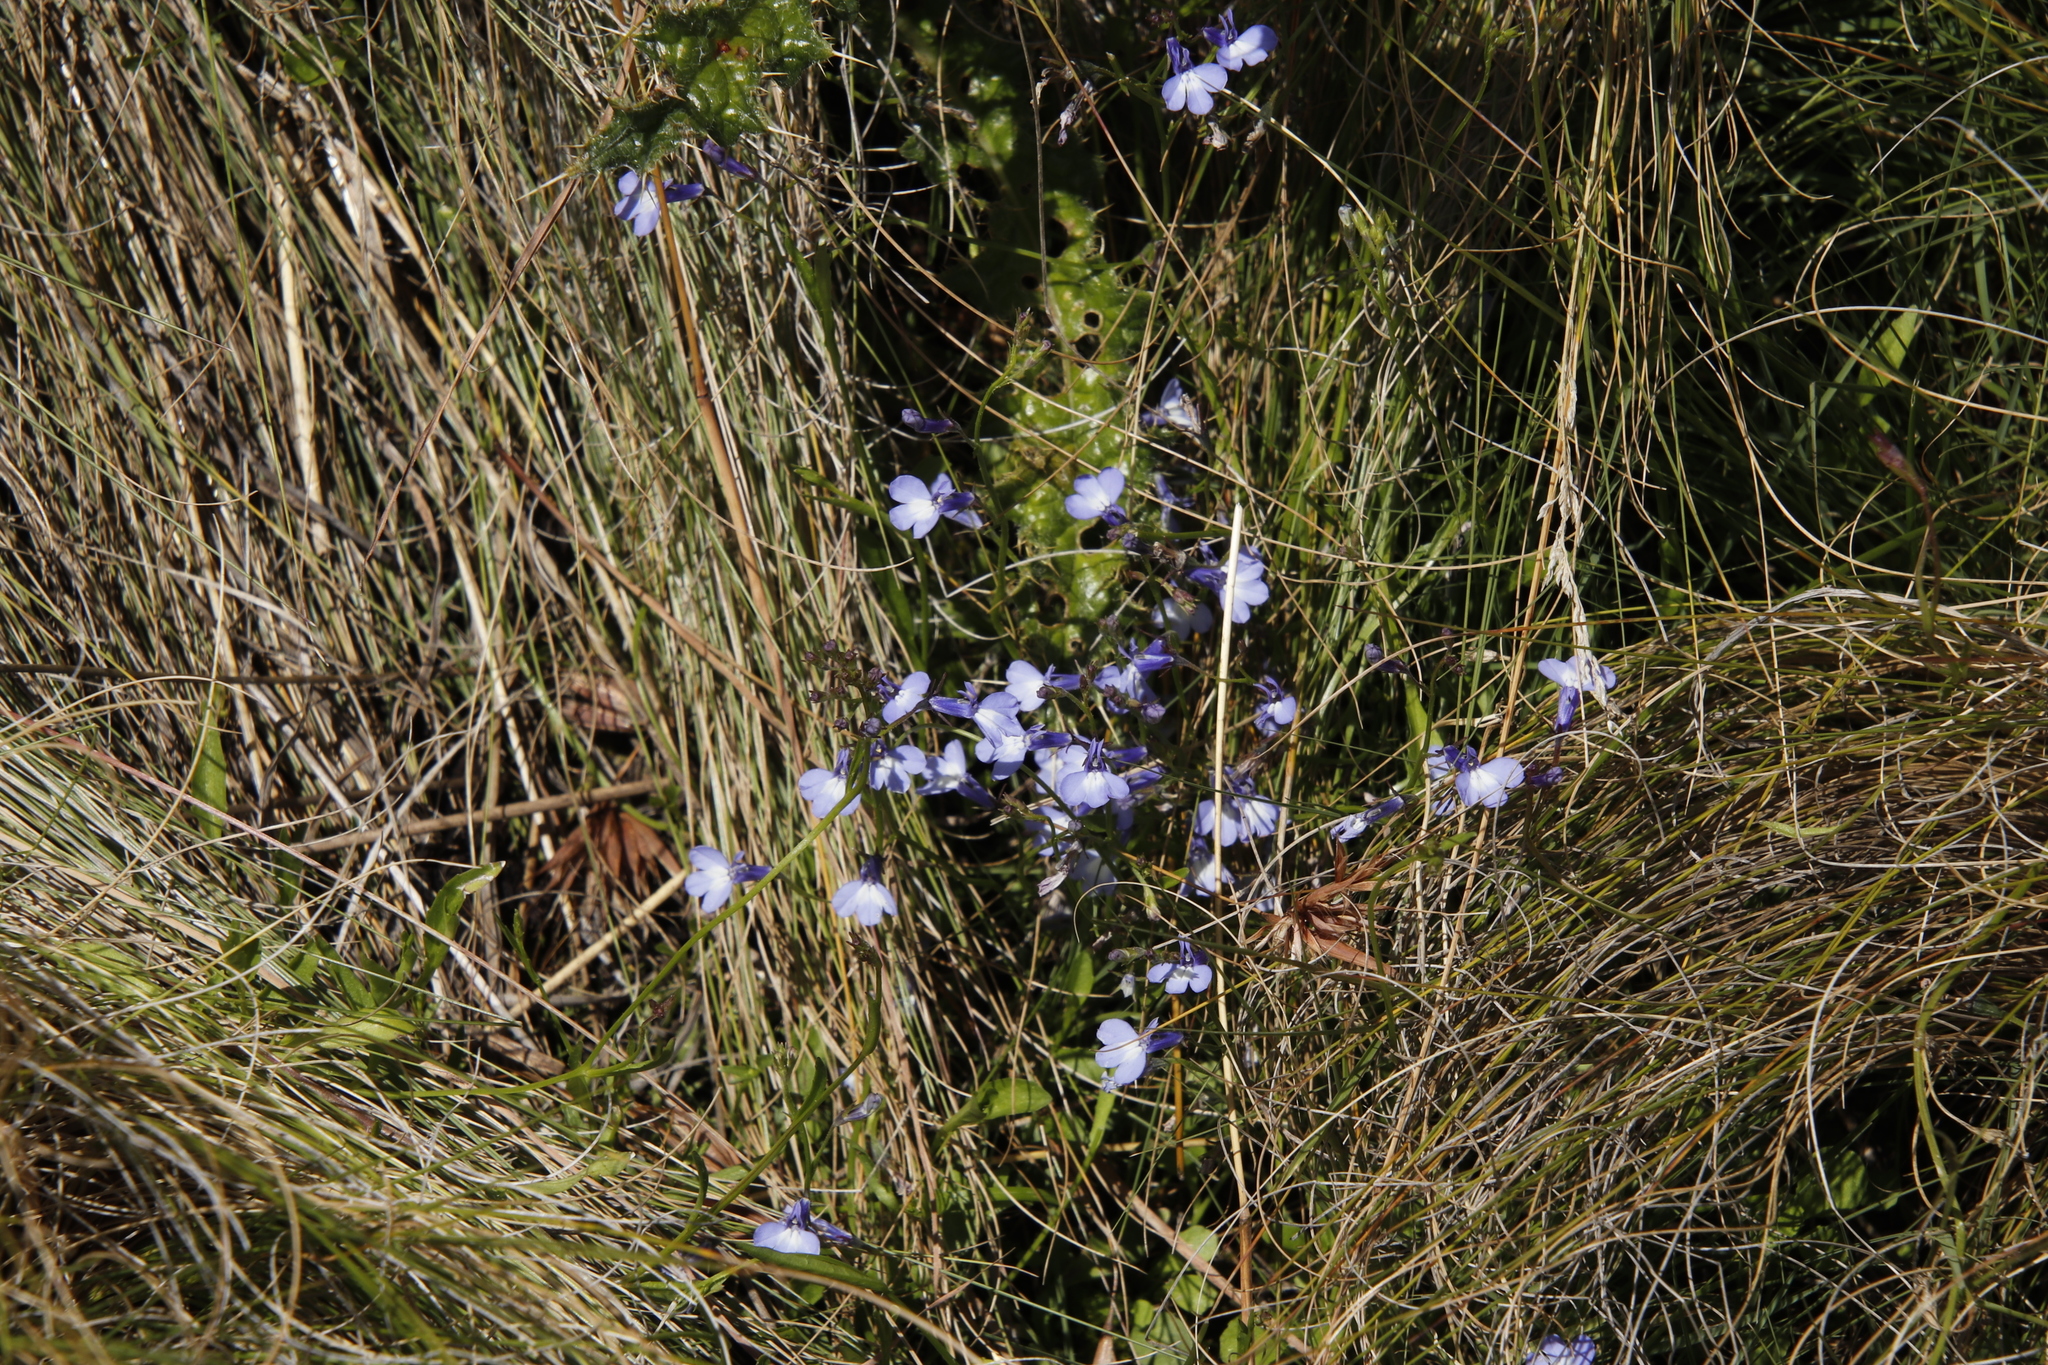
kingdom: Plantae
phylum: Tracheophyta
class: Magnoliopsida
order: Asterales
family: Campanulaceae
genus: Lobelia
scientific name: Lobelia flaccida
